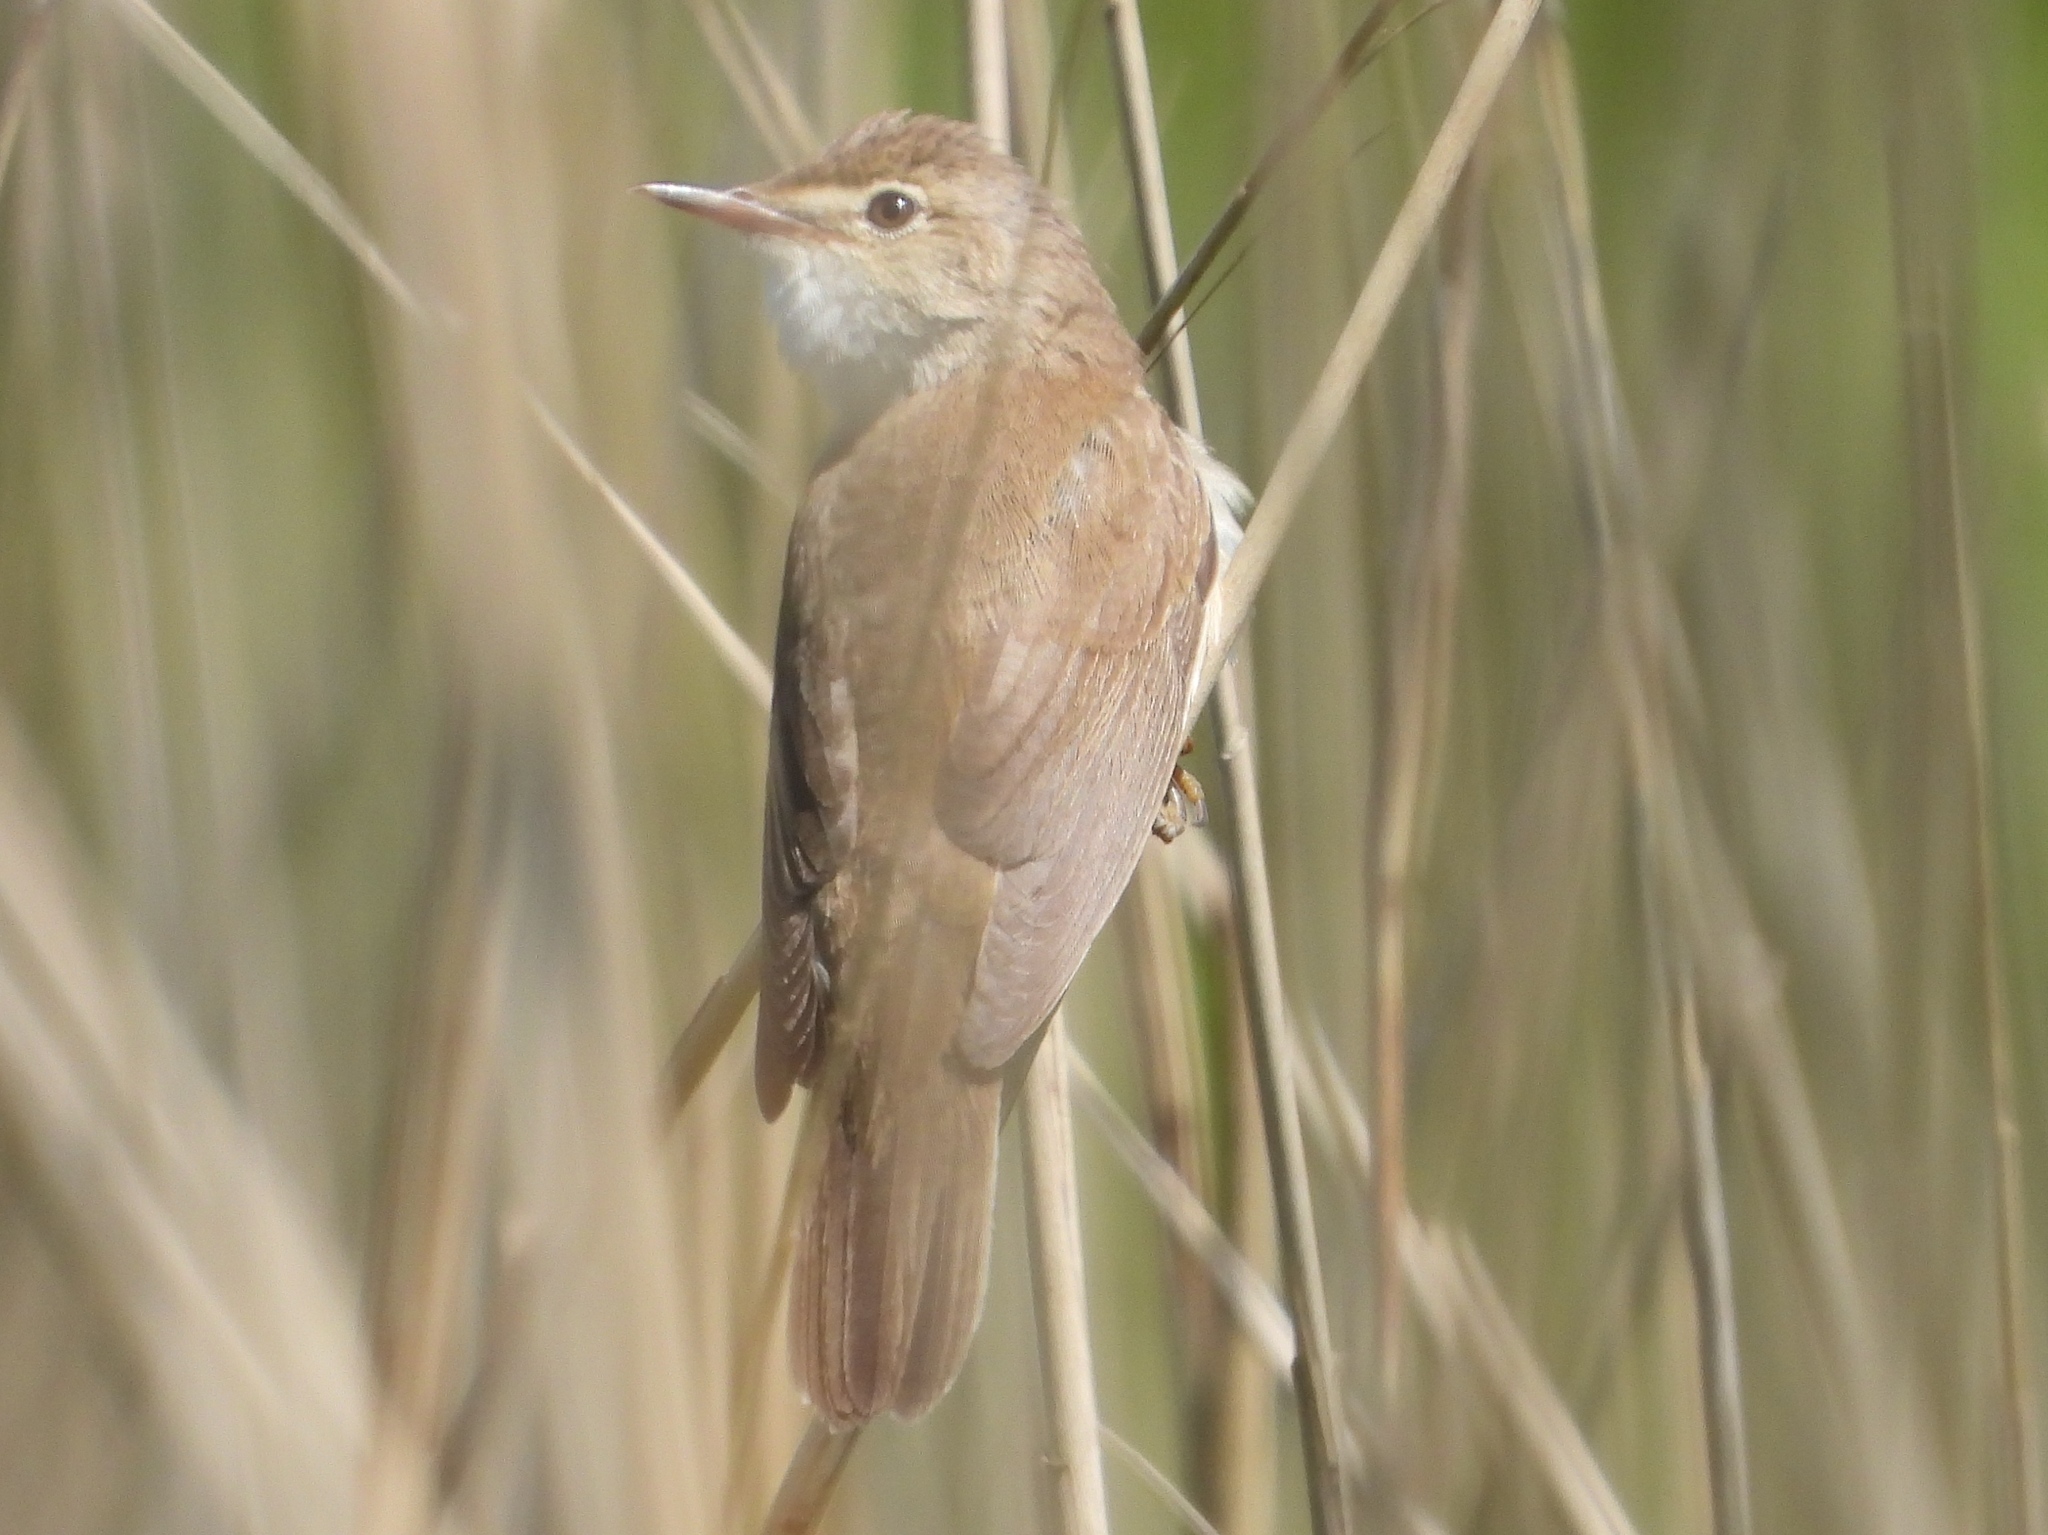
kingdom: Animalia
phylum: Chordata
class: Aves
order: Passeriformes
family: Acrocephalidae
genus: Acrocephalus
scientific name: Acrocephalus scirpaceus
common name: Eurasian reed warbler
